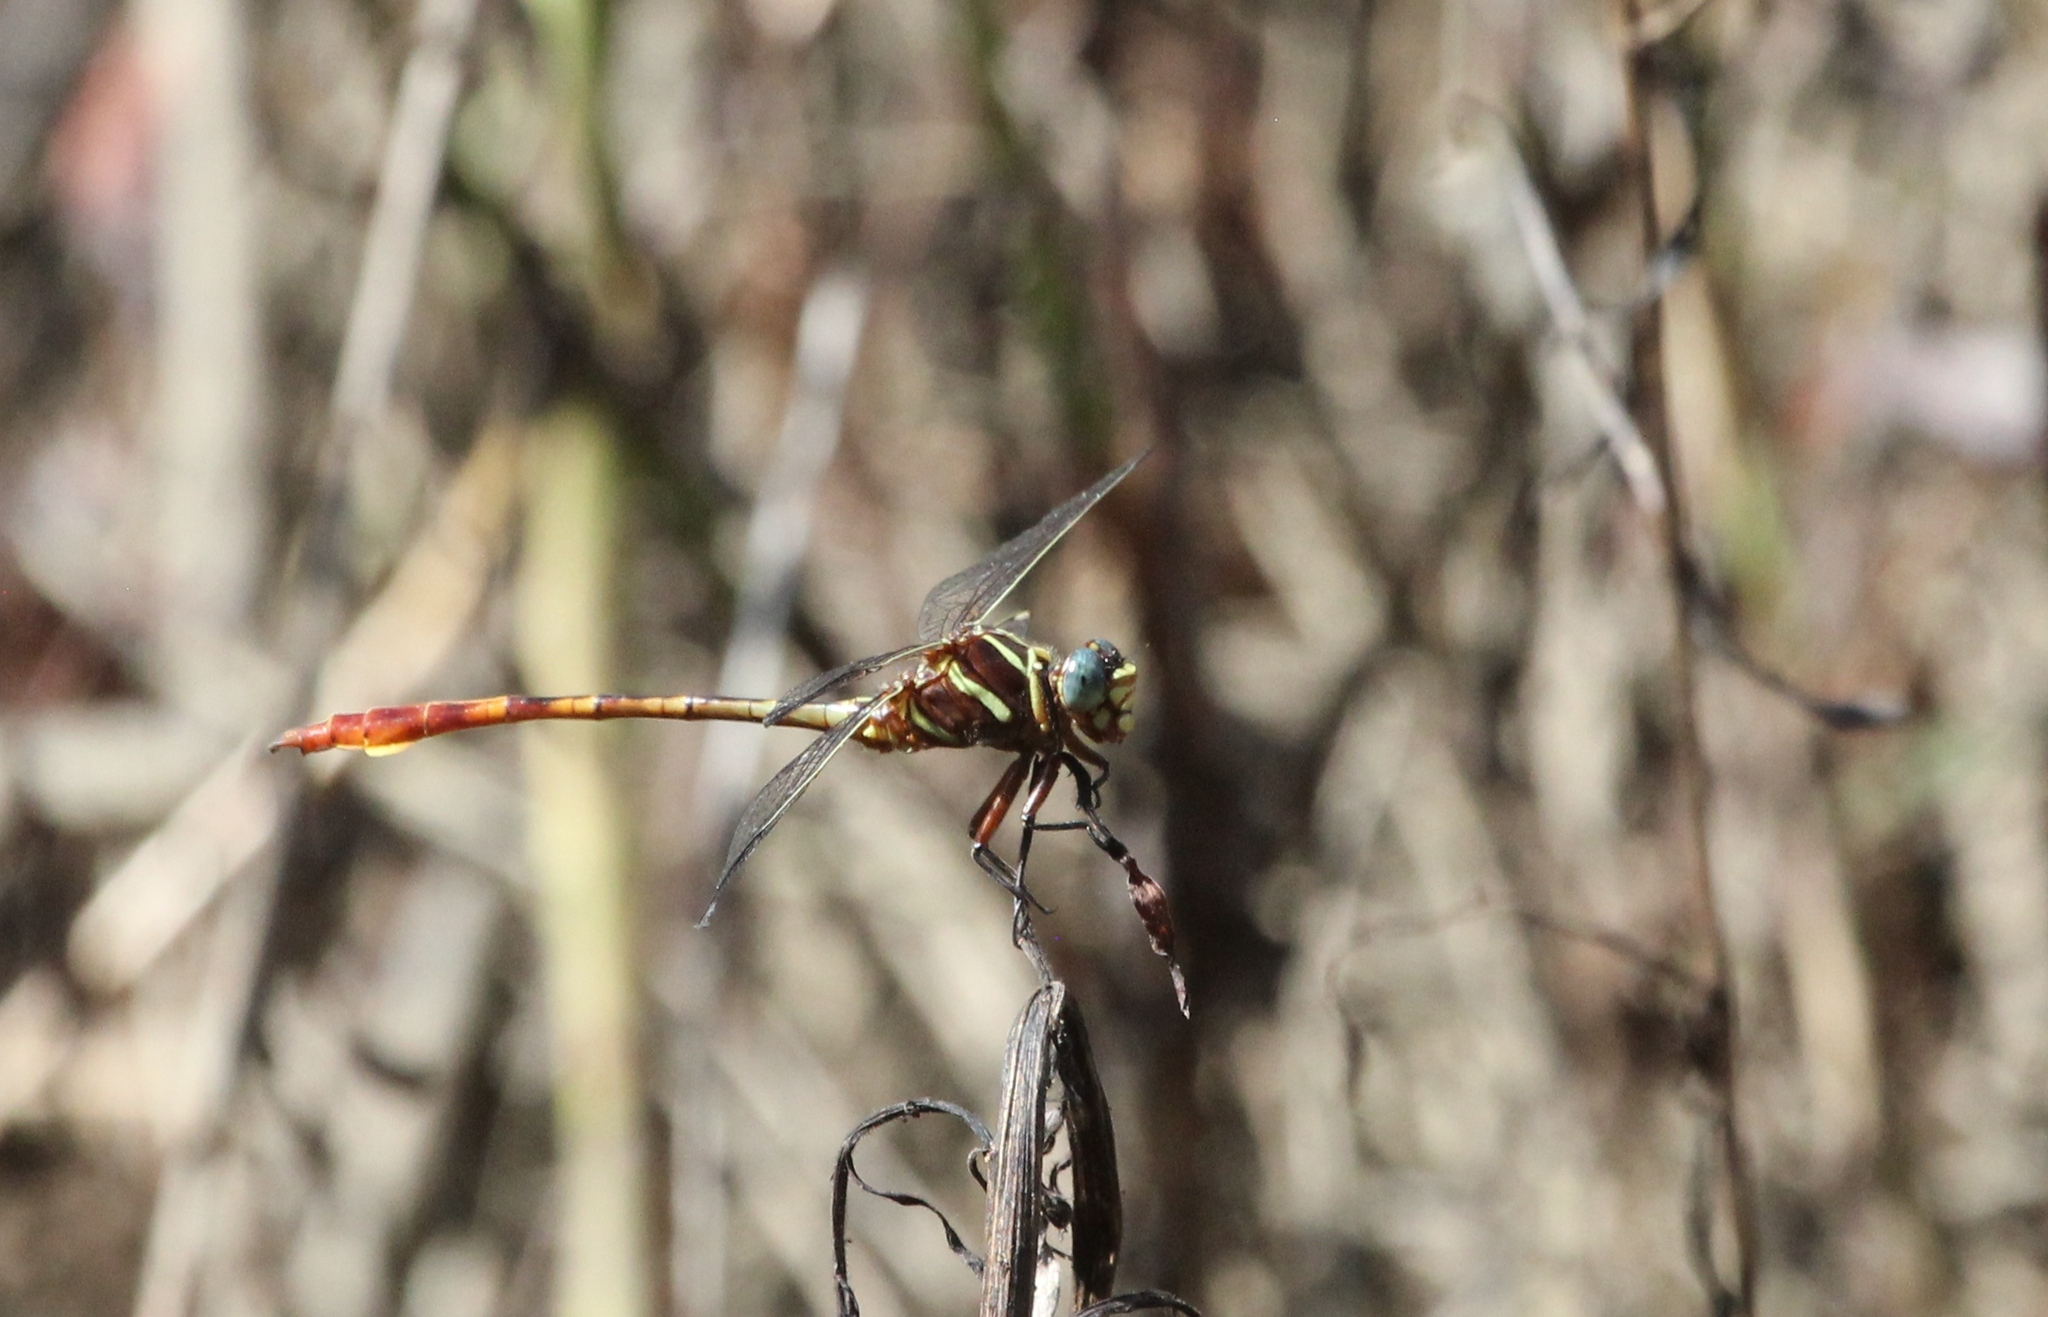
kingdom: Animalia
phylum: Arthropoda
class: Insecta
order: Odonata
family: Gomphidae
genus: Aphylla
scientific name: Aphylla williamsoni
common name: Two-striped forceptail
